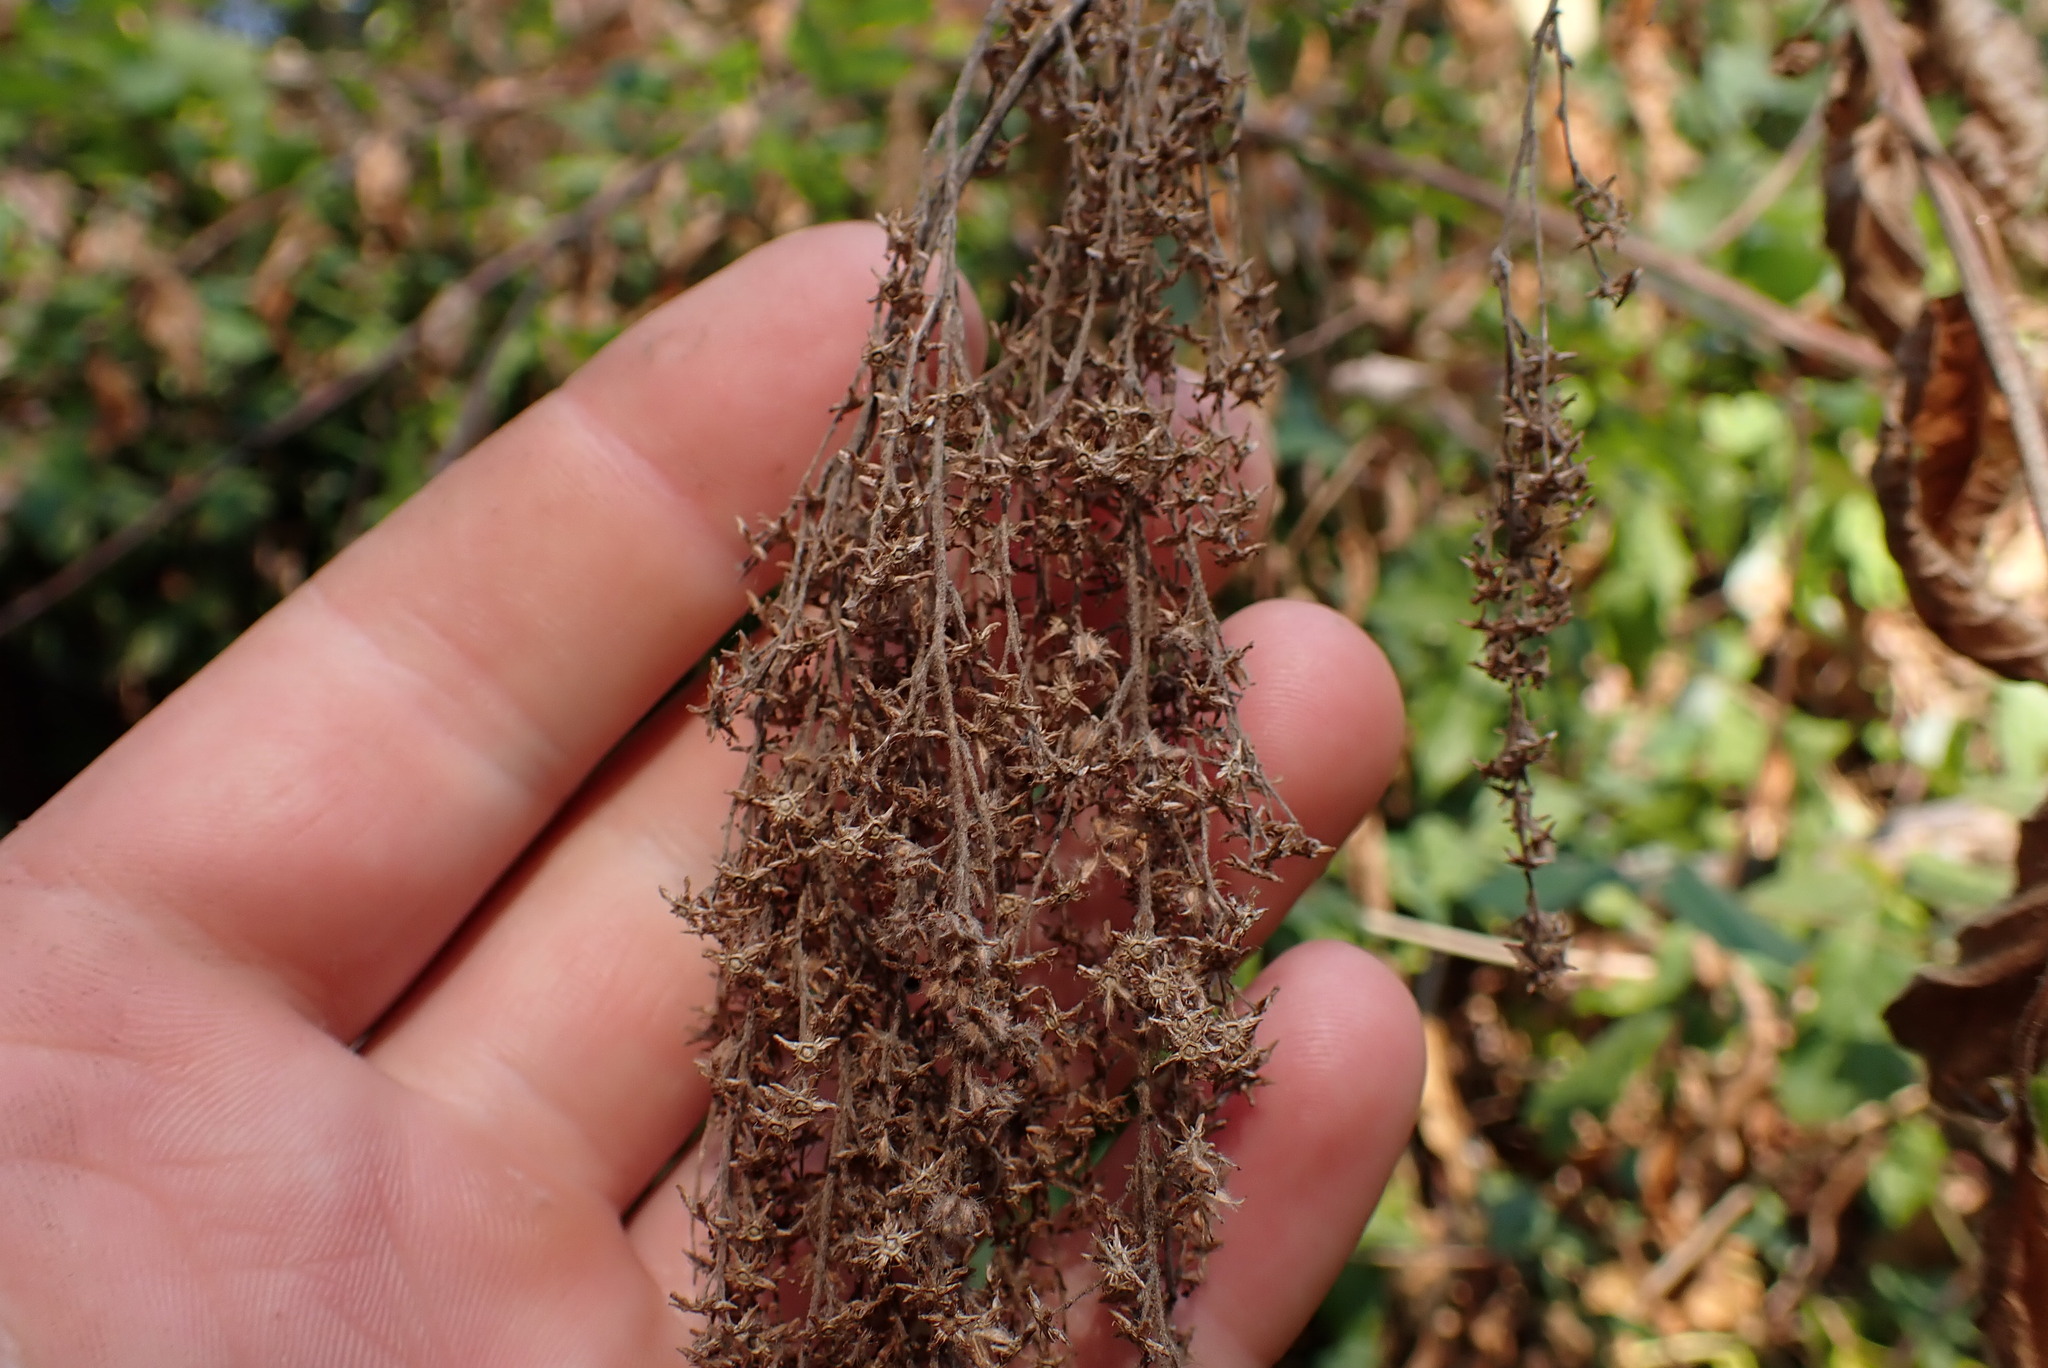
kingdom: Plantae
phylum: Tracheophyta
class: Magnoliopsida
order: Rosales
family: Rosaceae
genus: Holodiscus
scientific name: Holodiscus discolor
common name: Oceanspray
